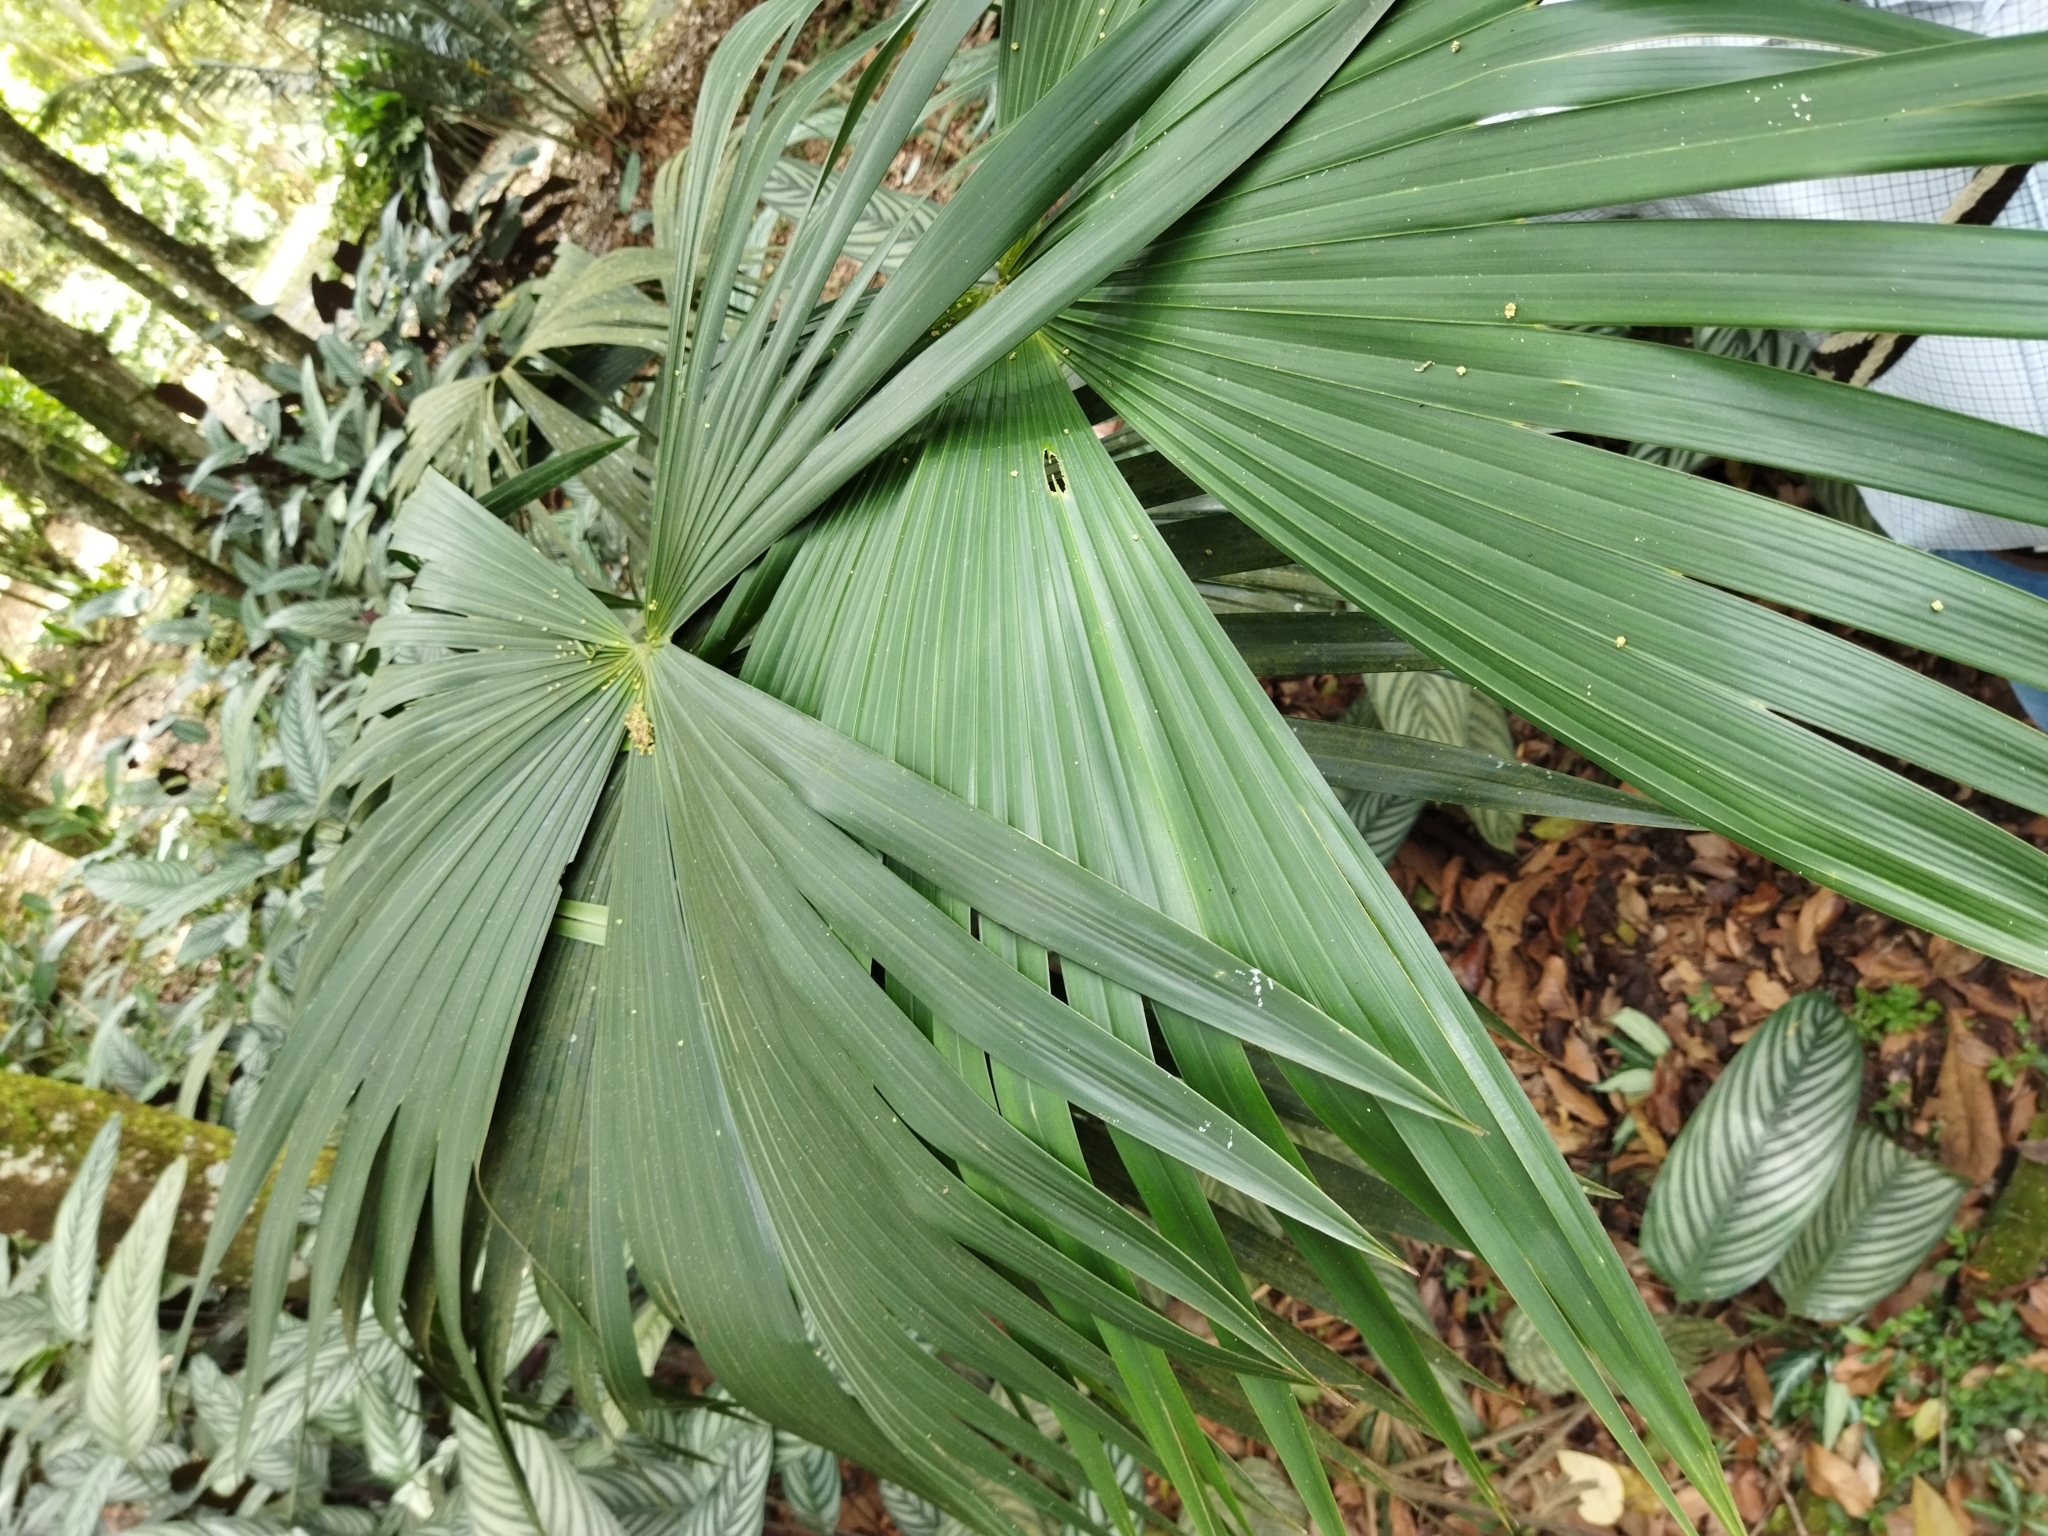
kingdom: Plantae
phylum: Tracheophyta
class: Liliopsida
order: Pandanales
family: Cyclanthaceae
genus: Carludovica
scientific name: Carludovica palmata
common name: Panama hat plant
